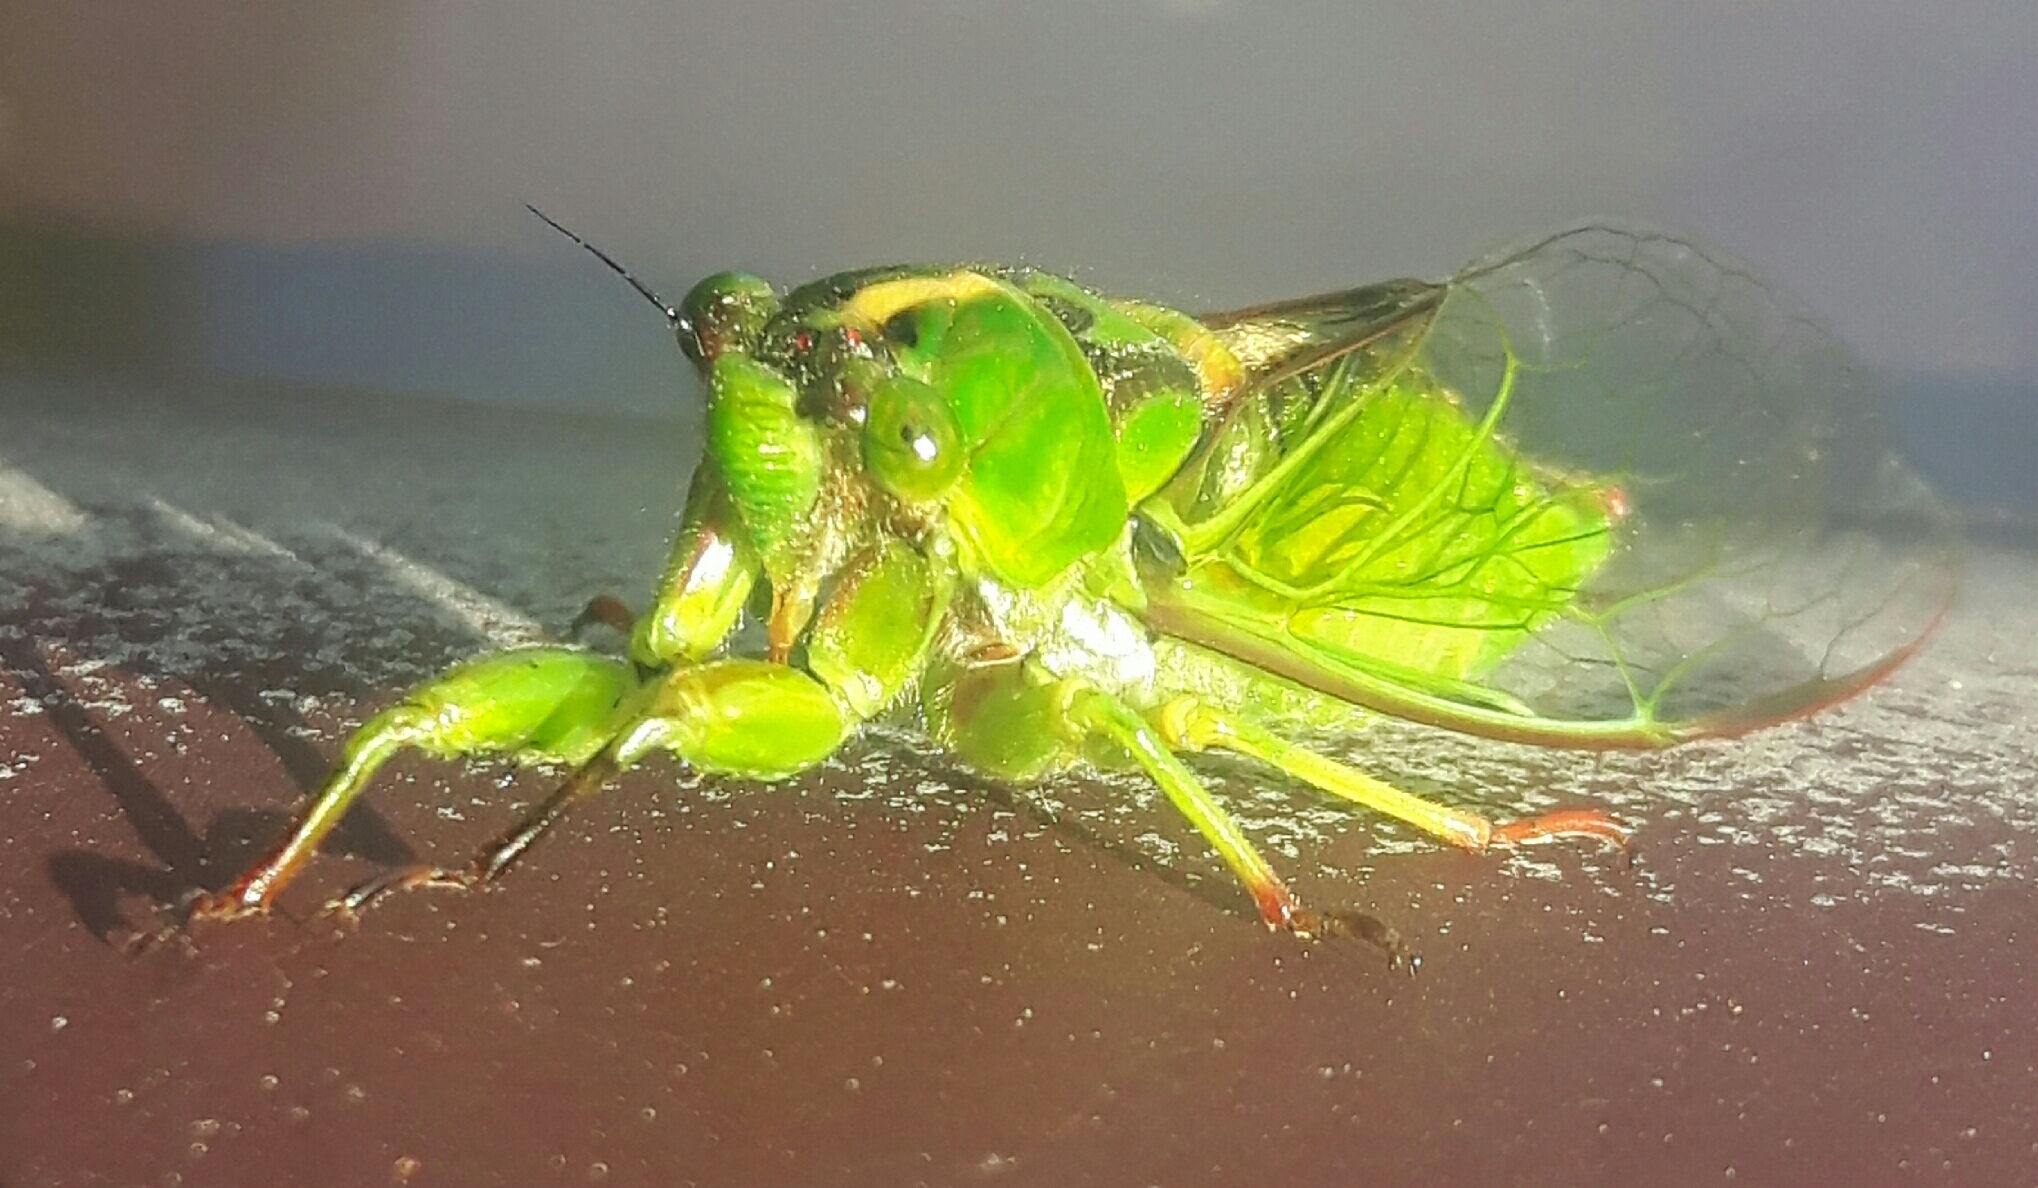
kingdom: Animalia
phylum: Arthropoda
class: Insecta
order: Hemiptera
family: Cicadidae
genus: Kikihia
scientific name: Kikihia subalpina
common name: Chathams cicada
